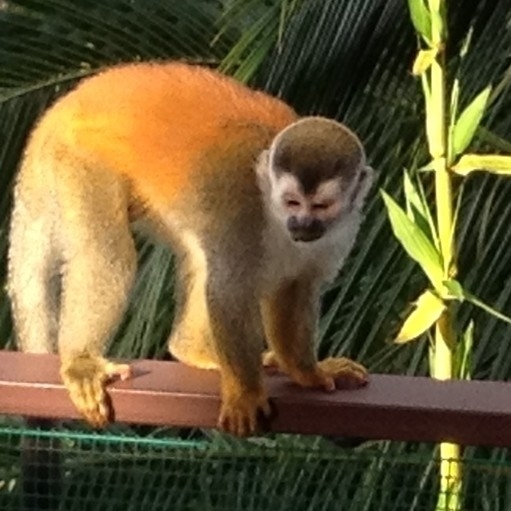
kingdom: Animalia
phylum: Chordata
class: Mammalia
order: Primates
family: Cebidae
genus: Saimiri
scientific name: Saimiri oerstedii
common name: Central american squirrel monkey
